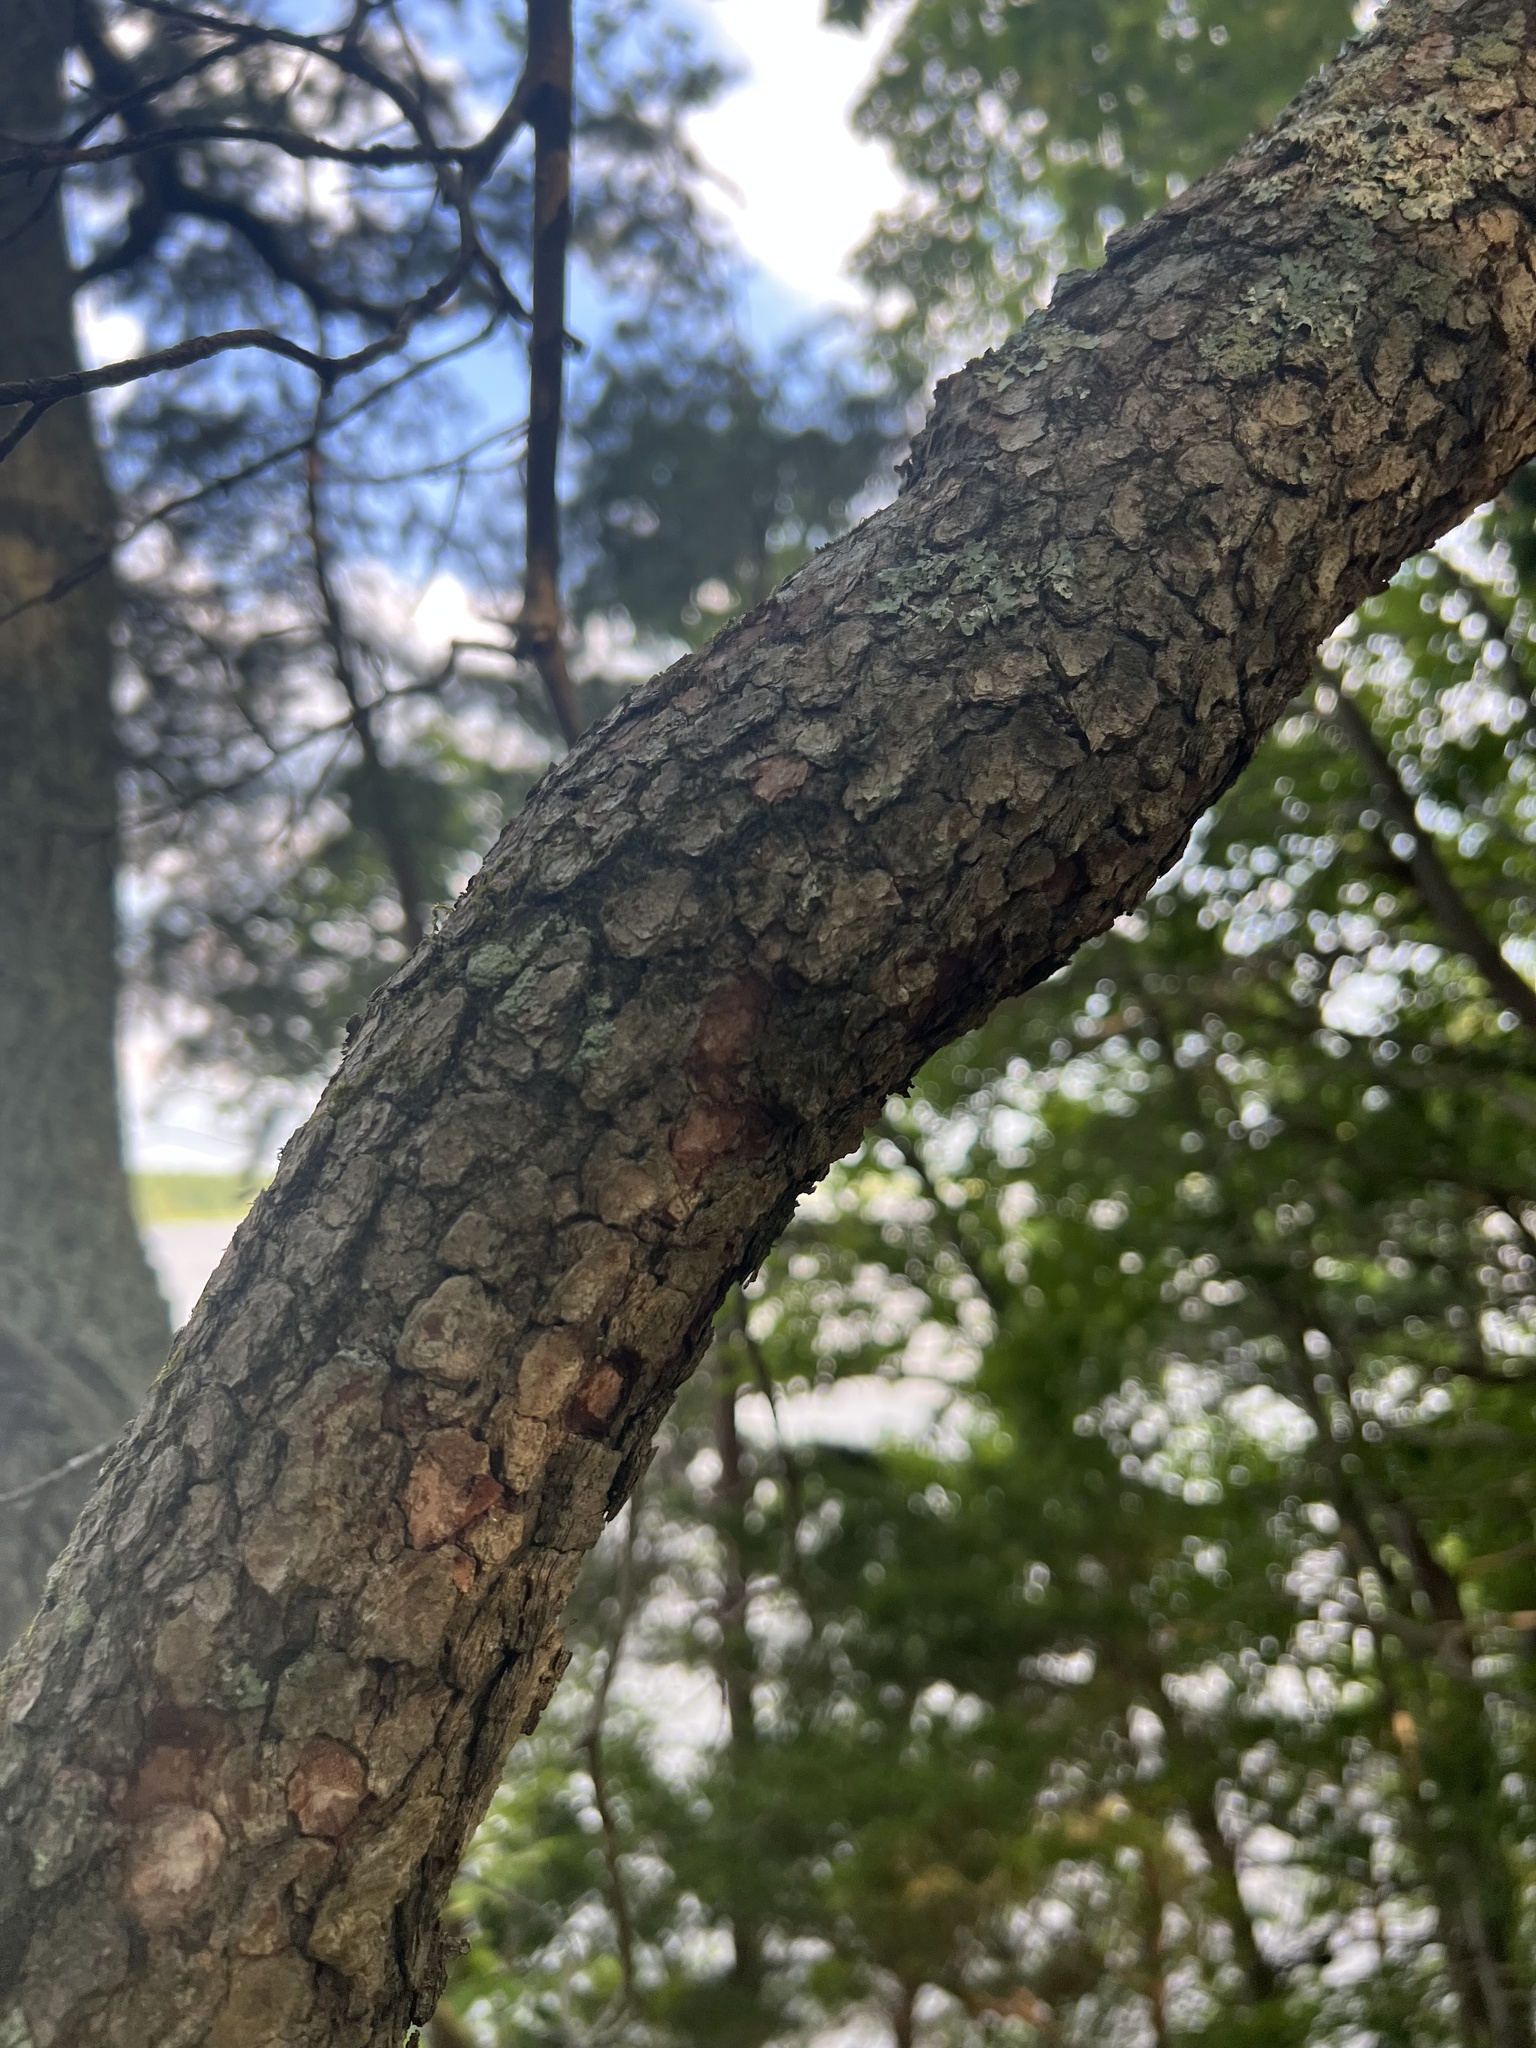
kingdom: Plantae
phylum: Tracheophyta
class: Magnoliopsida
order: Cornales
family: Cornaceae
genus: Cornus
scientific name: Cornus florida
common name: Flowering dogwood
